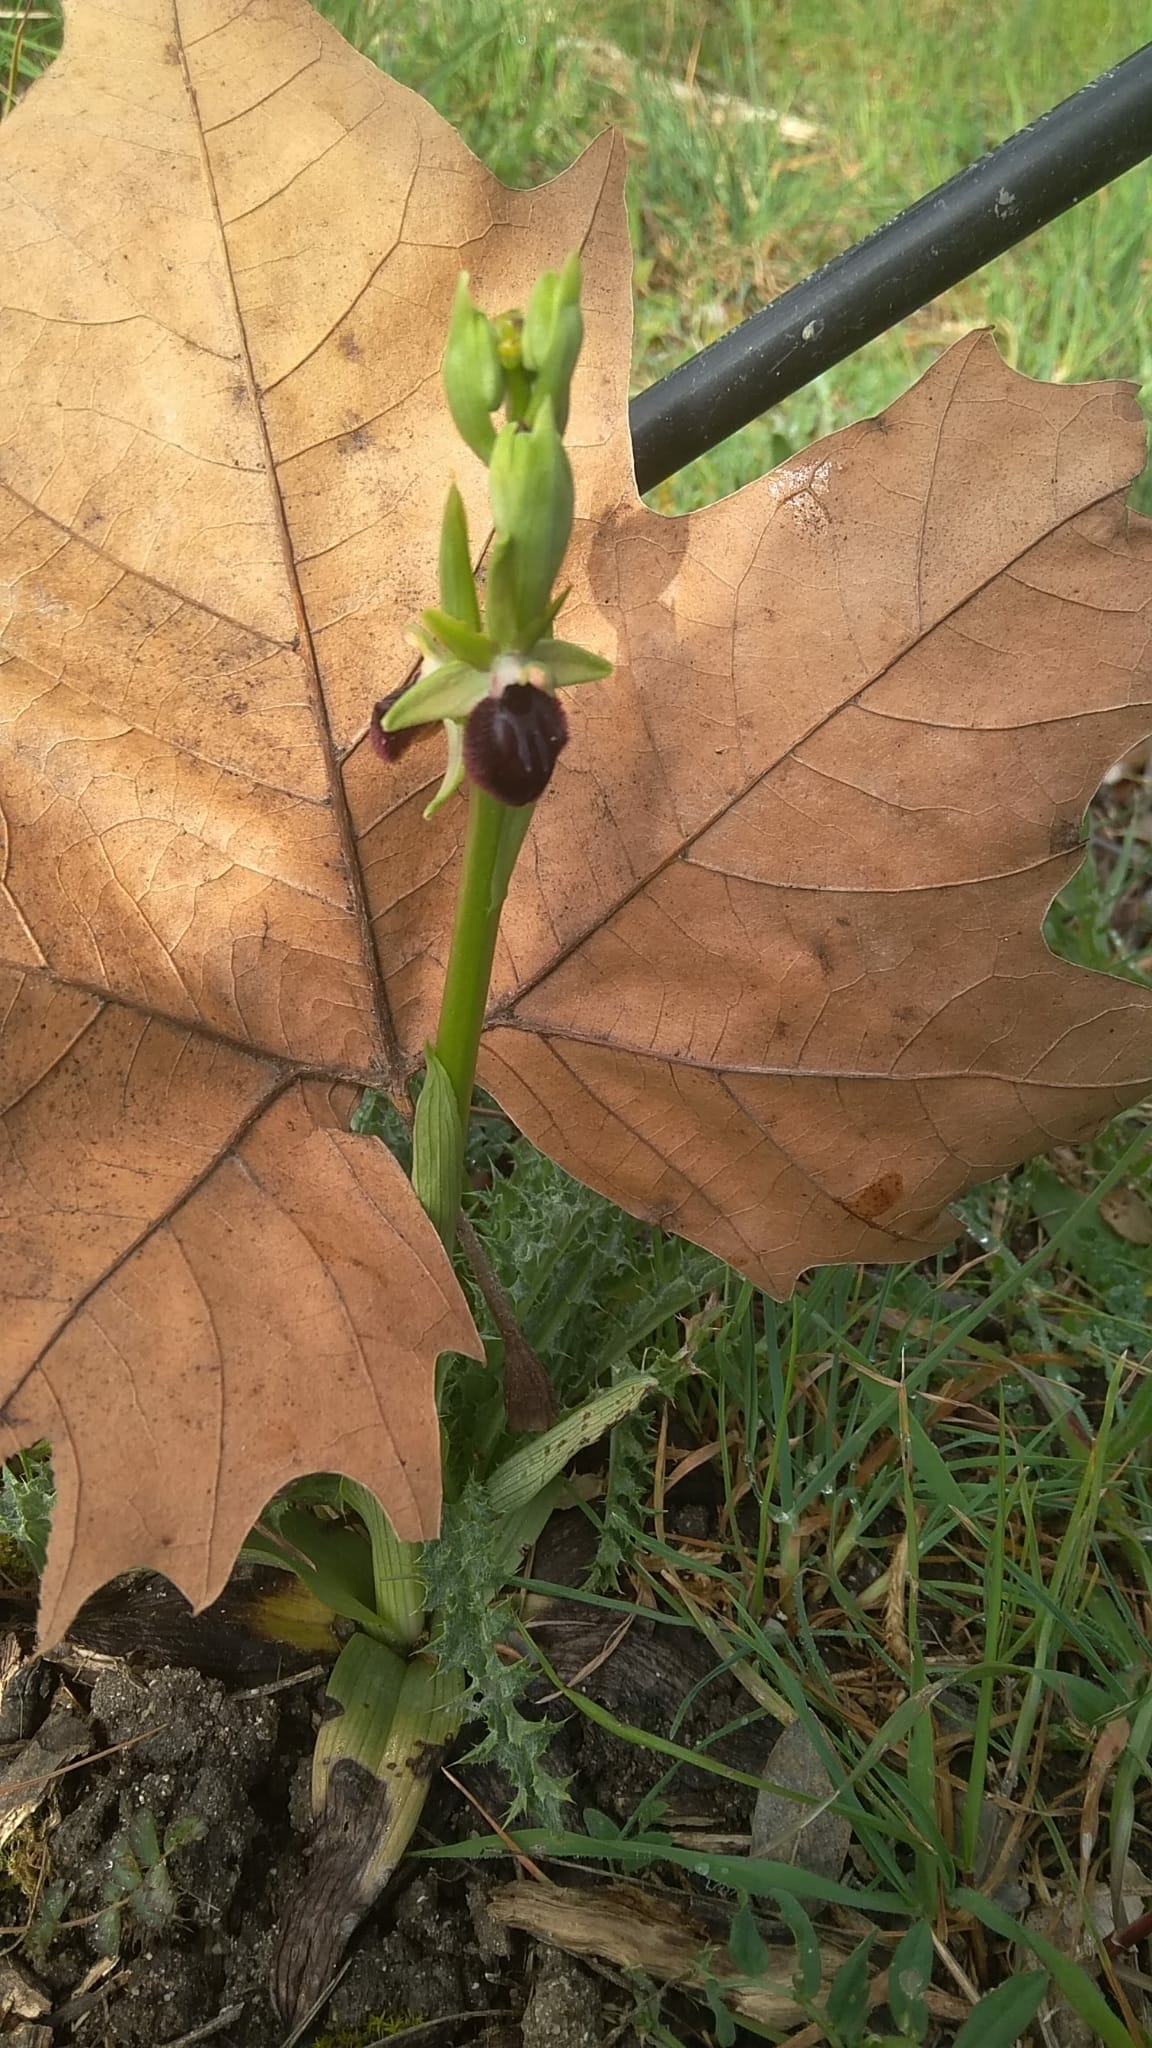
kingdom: Plantae
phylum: Tracheophyta
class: Liliopsida
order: Asparagales
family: Orchidaceae
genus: Ophrys
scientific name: Ophrys sphegodes
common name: Early spider-orchid
